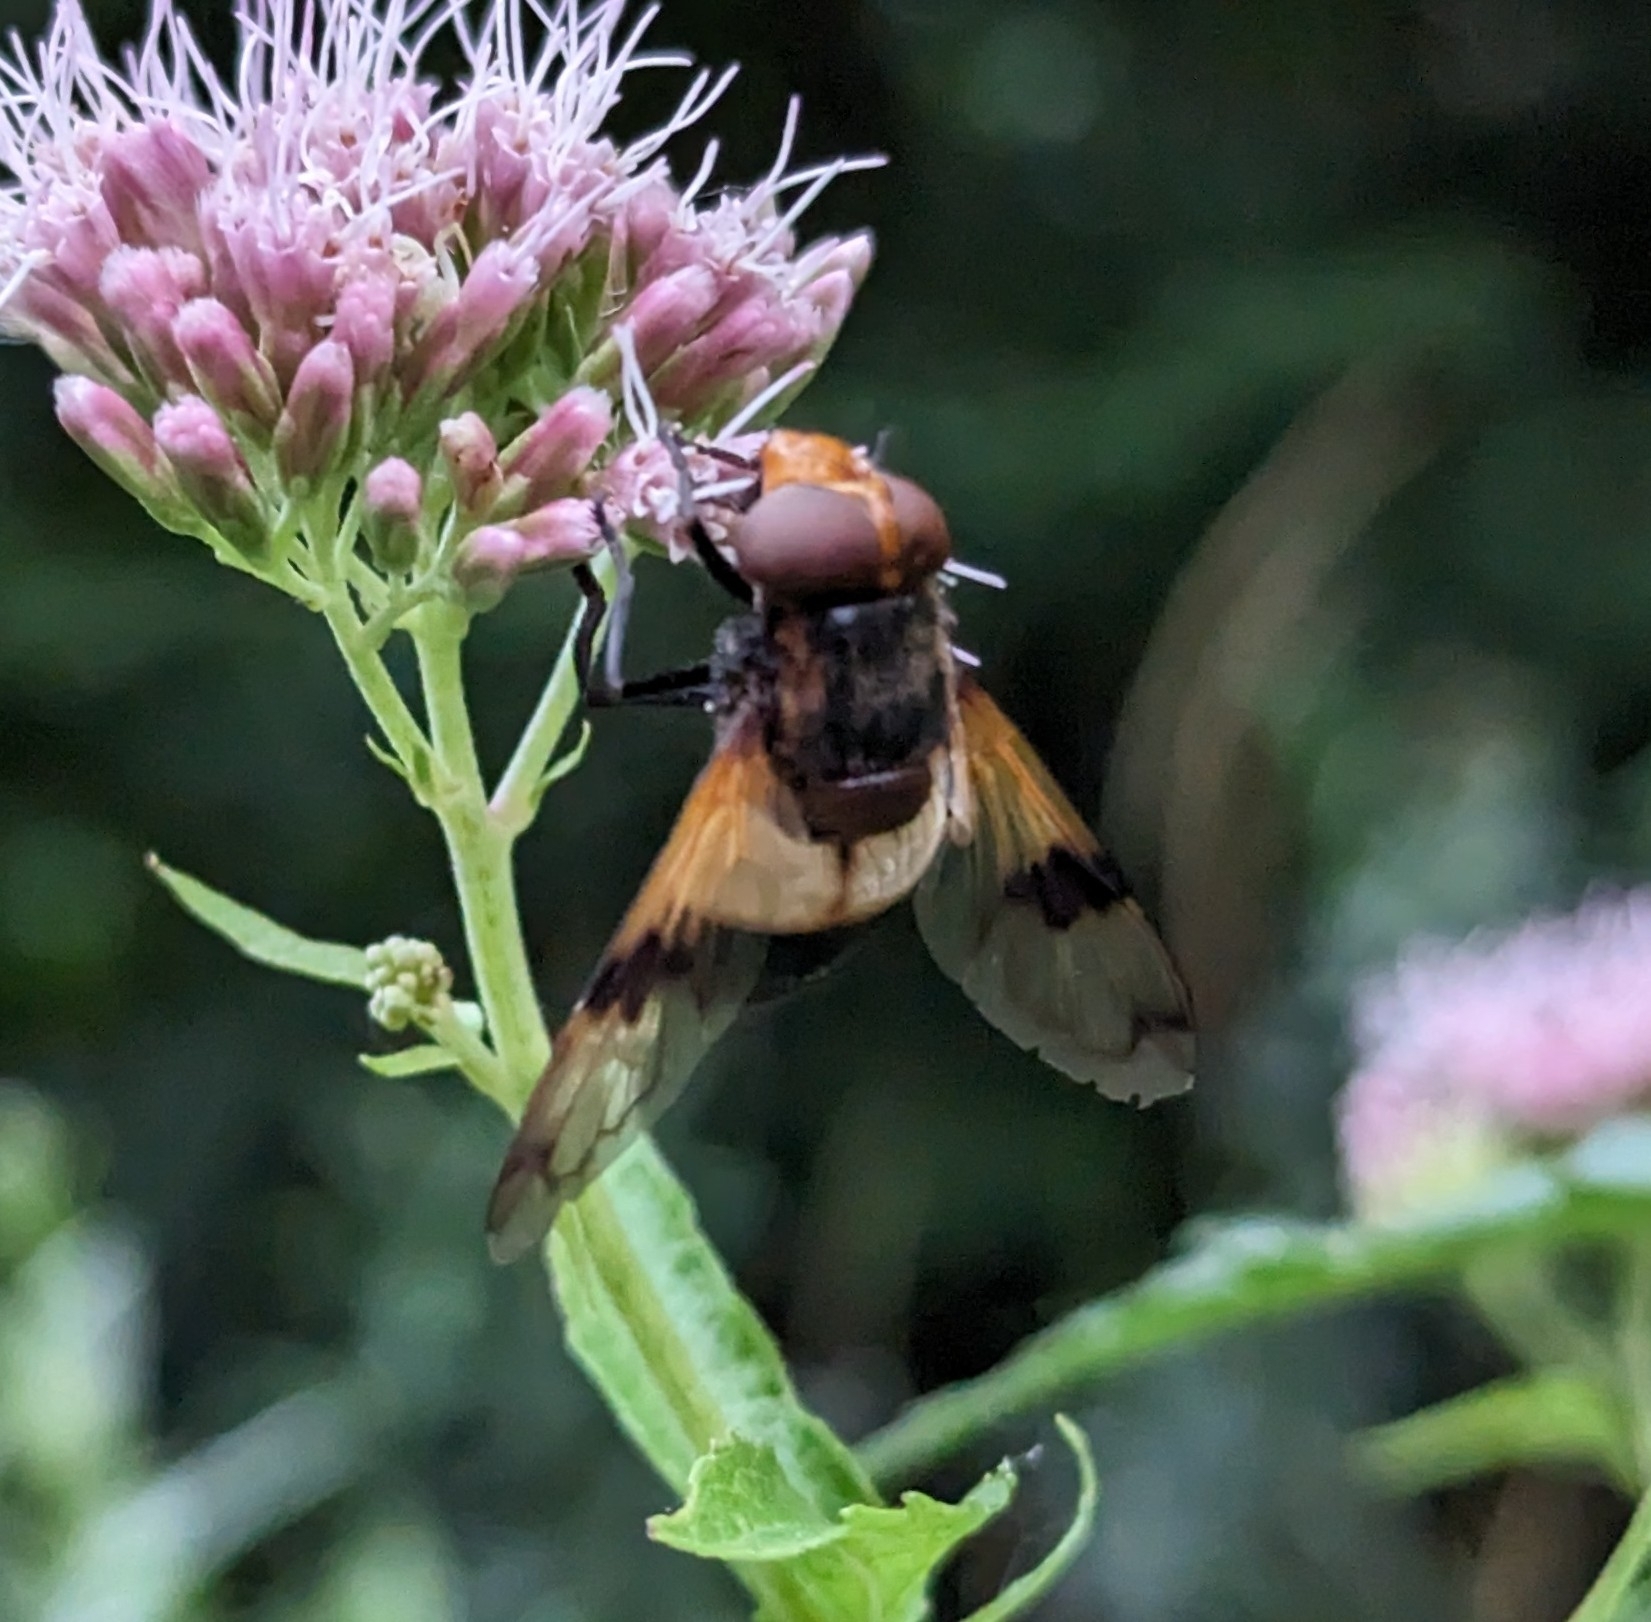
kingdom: Animalia
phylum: Arthropoda
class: Insecta
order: Diptera
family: Syrphidae
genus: Volucella
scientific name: Volucella pellucens
